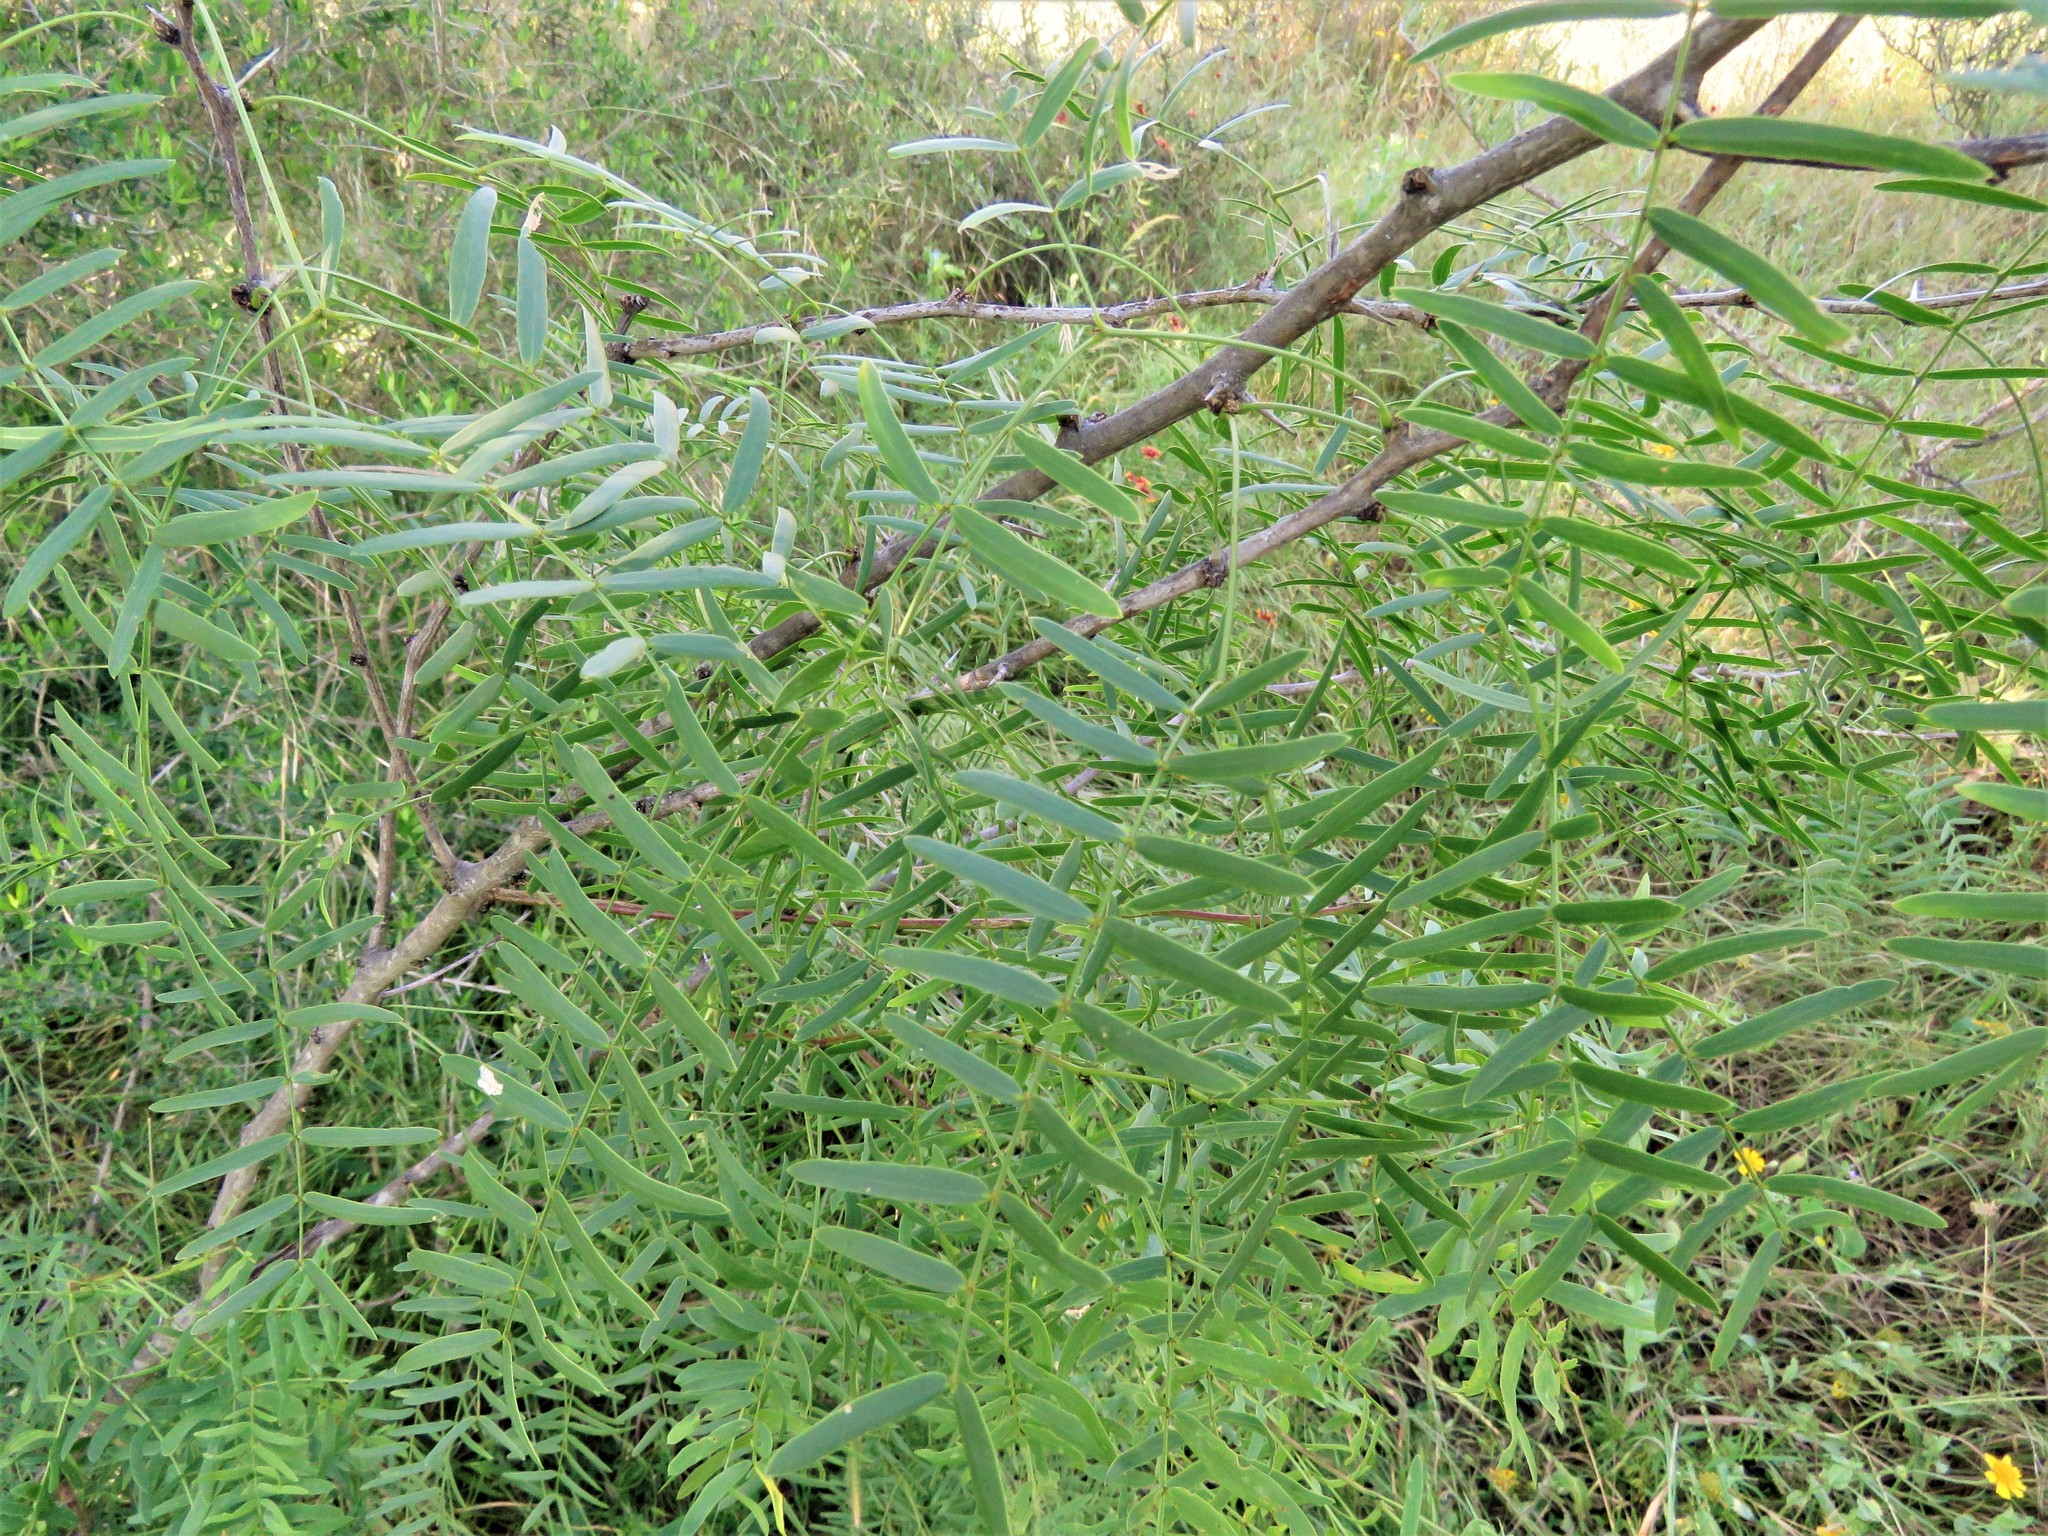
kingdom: Plantae
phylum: Tracheophyta
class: Magnoliopsida
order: Fabales
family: Fabaceae
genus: Prosopis
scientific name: Prosopis glandulosa
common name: Honey mesquite
